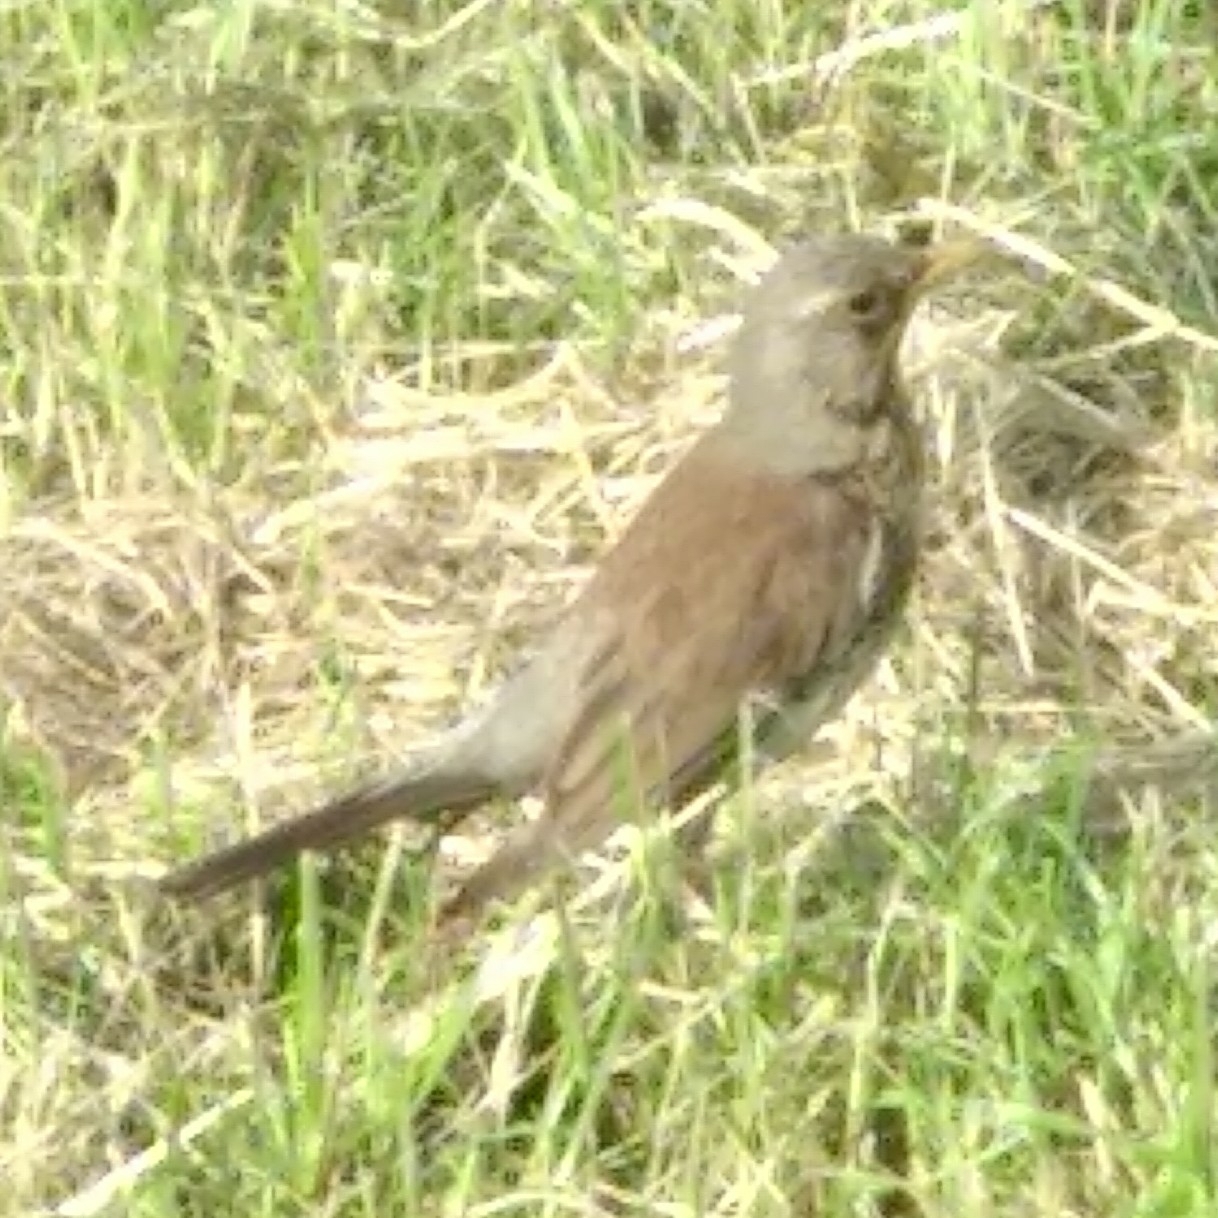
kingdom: Animalia
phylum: Chordata
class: Aves
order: Passeriformes
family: Turdidae
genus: Turdus
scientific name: Turdus pilaris
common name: Fieldfare
